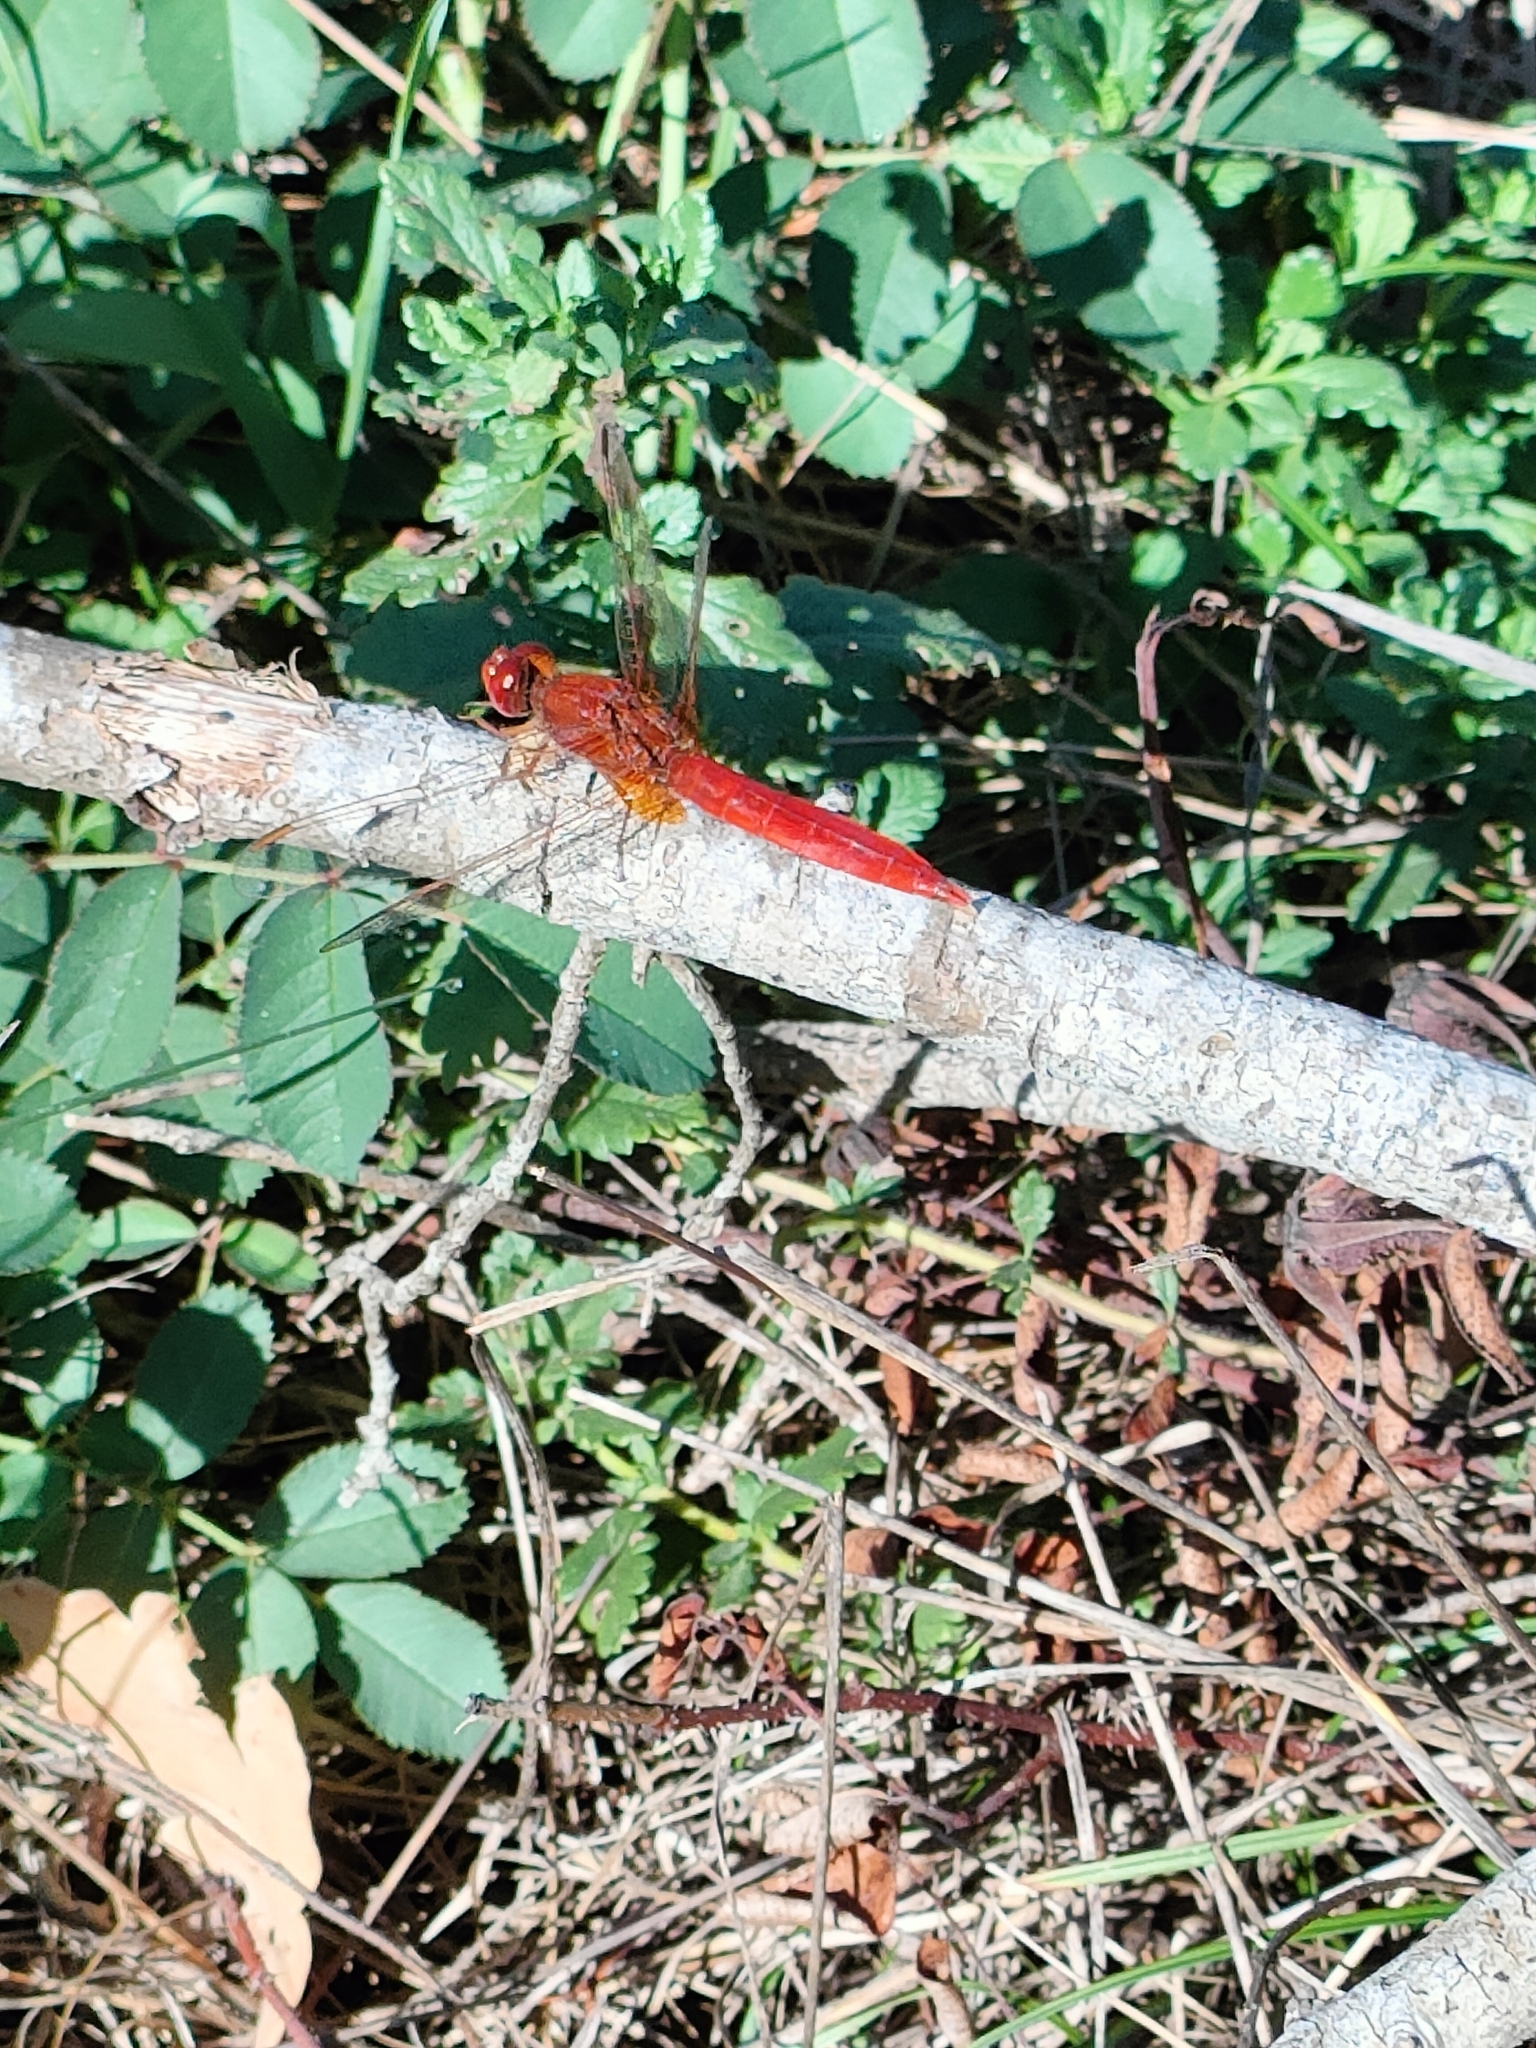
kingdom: Animalia
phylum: Arthropoda
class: Insecta
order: Odonata
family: Libellulidae
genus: Crocothemis
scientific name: Crocothemis erythraea
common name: Scarlet dragonfly
